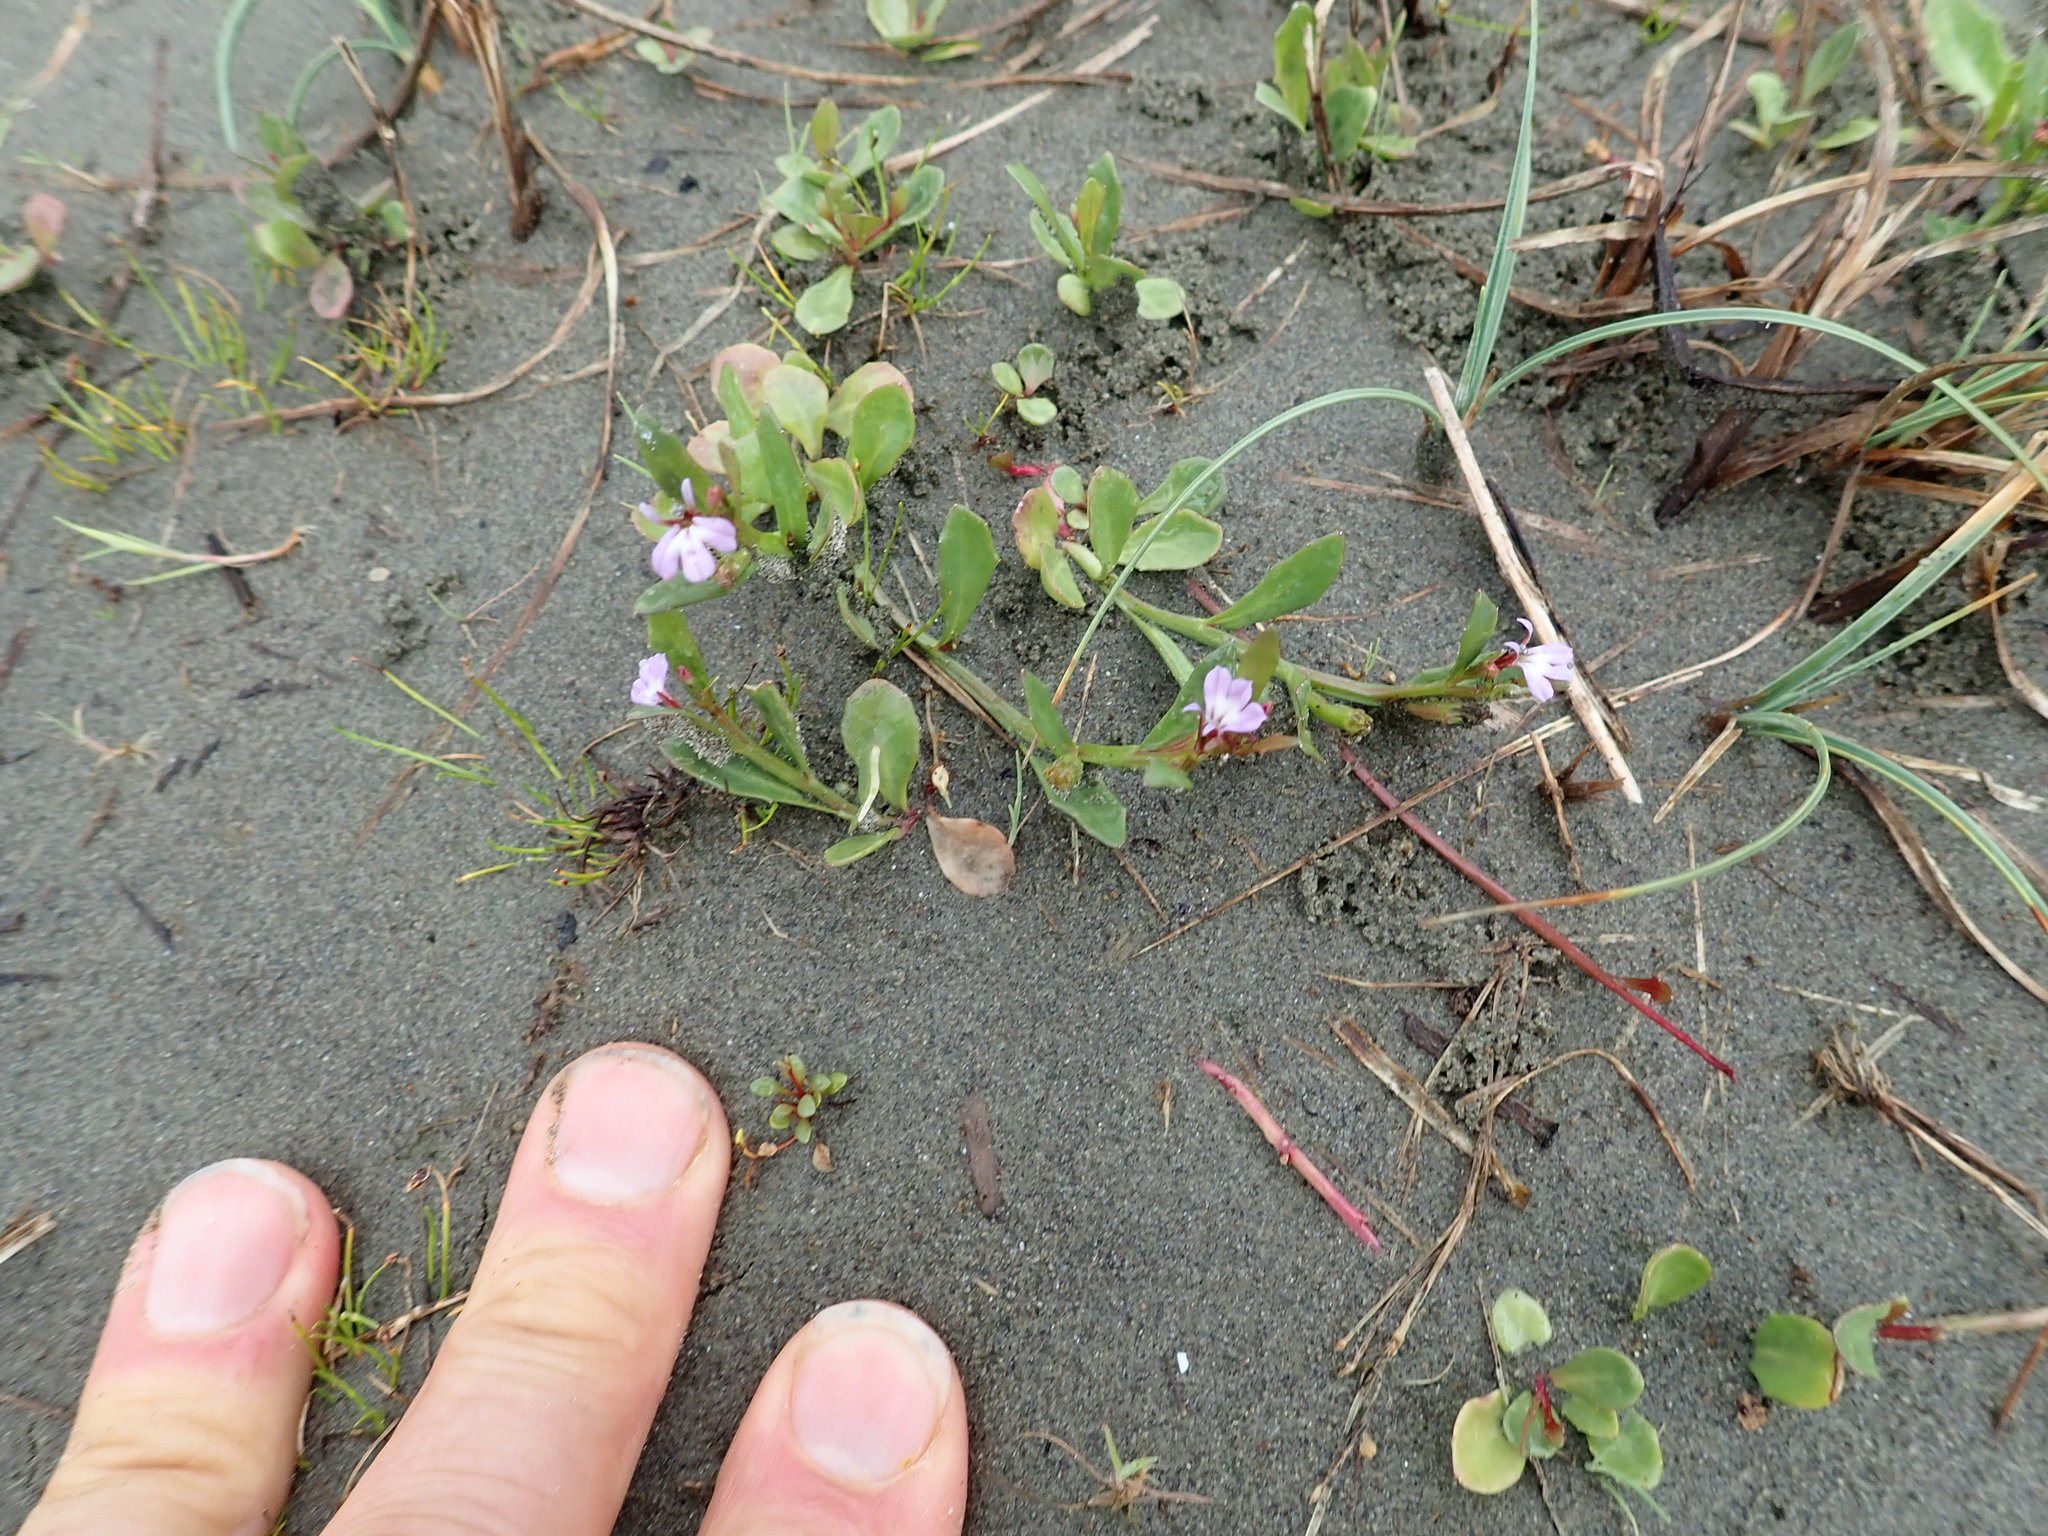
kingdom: Plantae
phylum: Tracheophyta
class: Magnoliopsida
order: Asterales
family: Campanulaceae
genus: Lobelia
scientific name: Lobelia anceps
